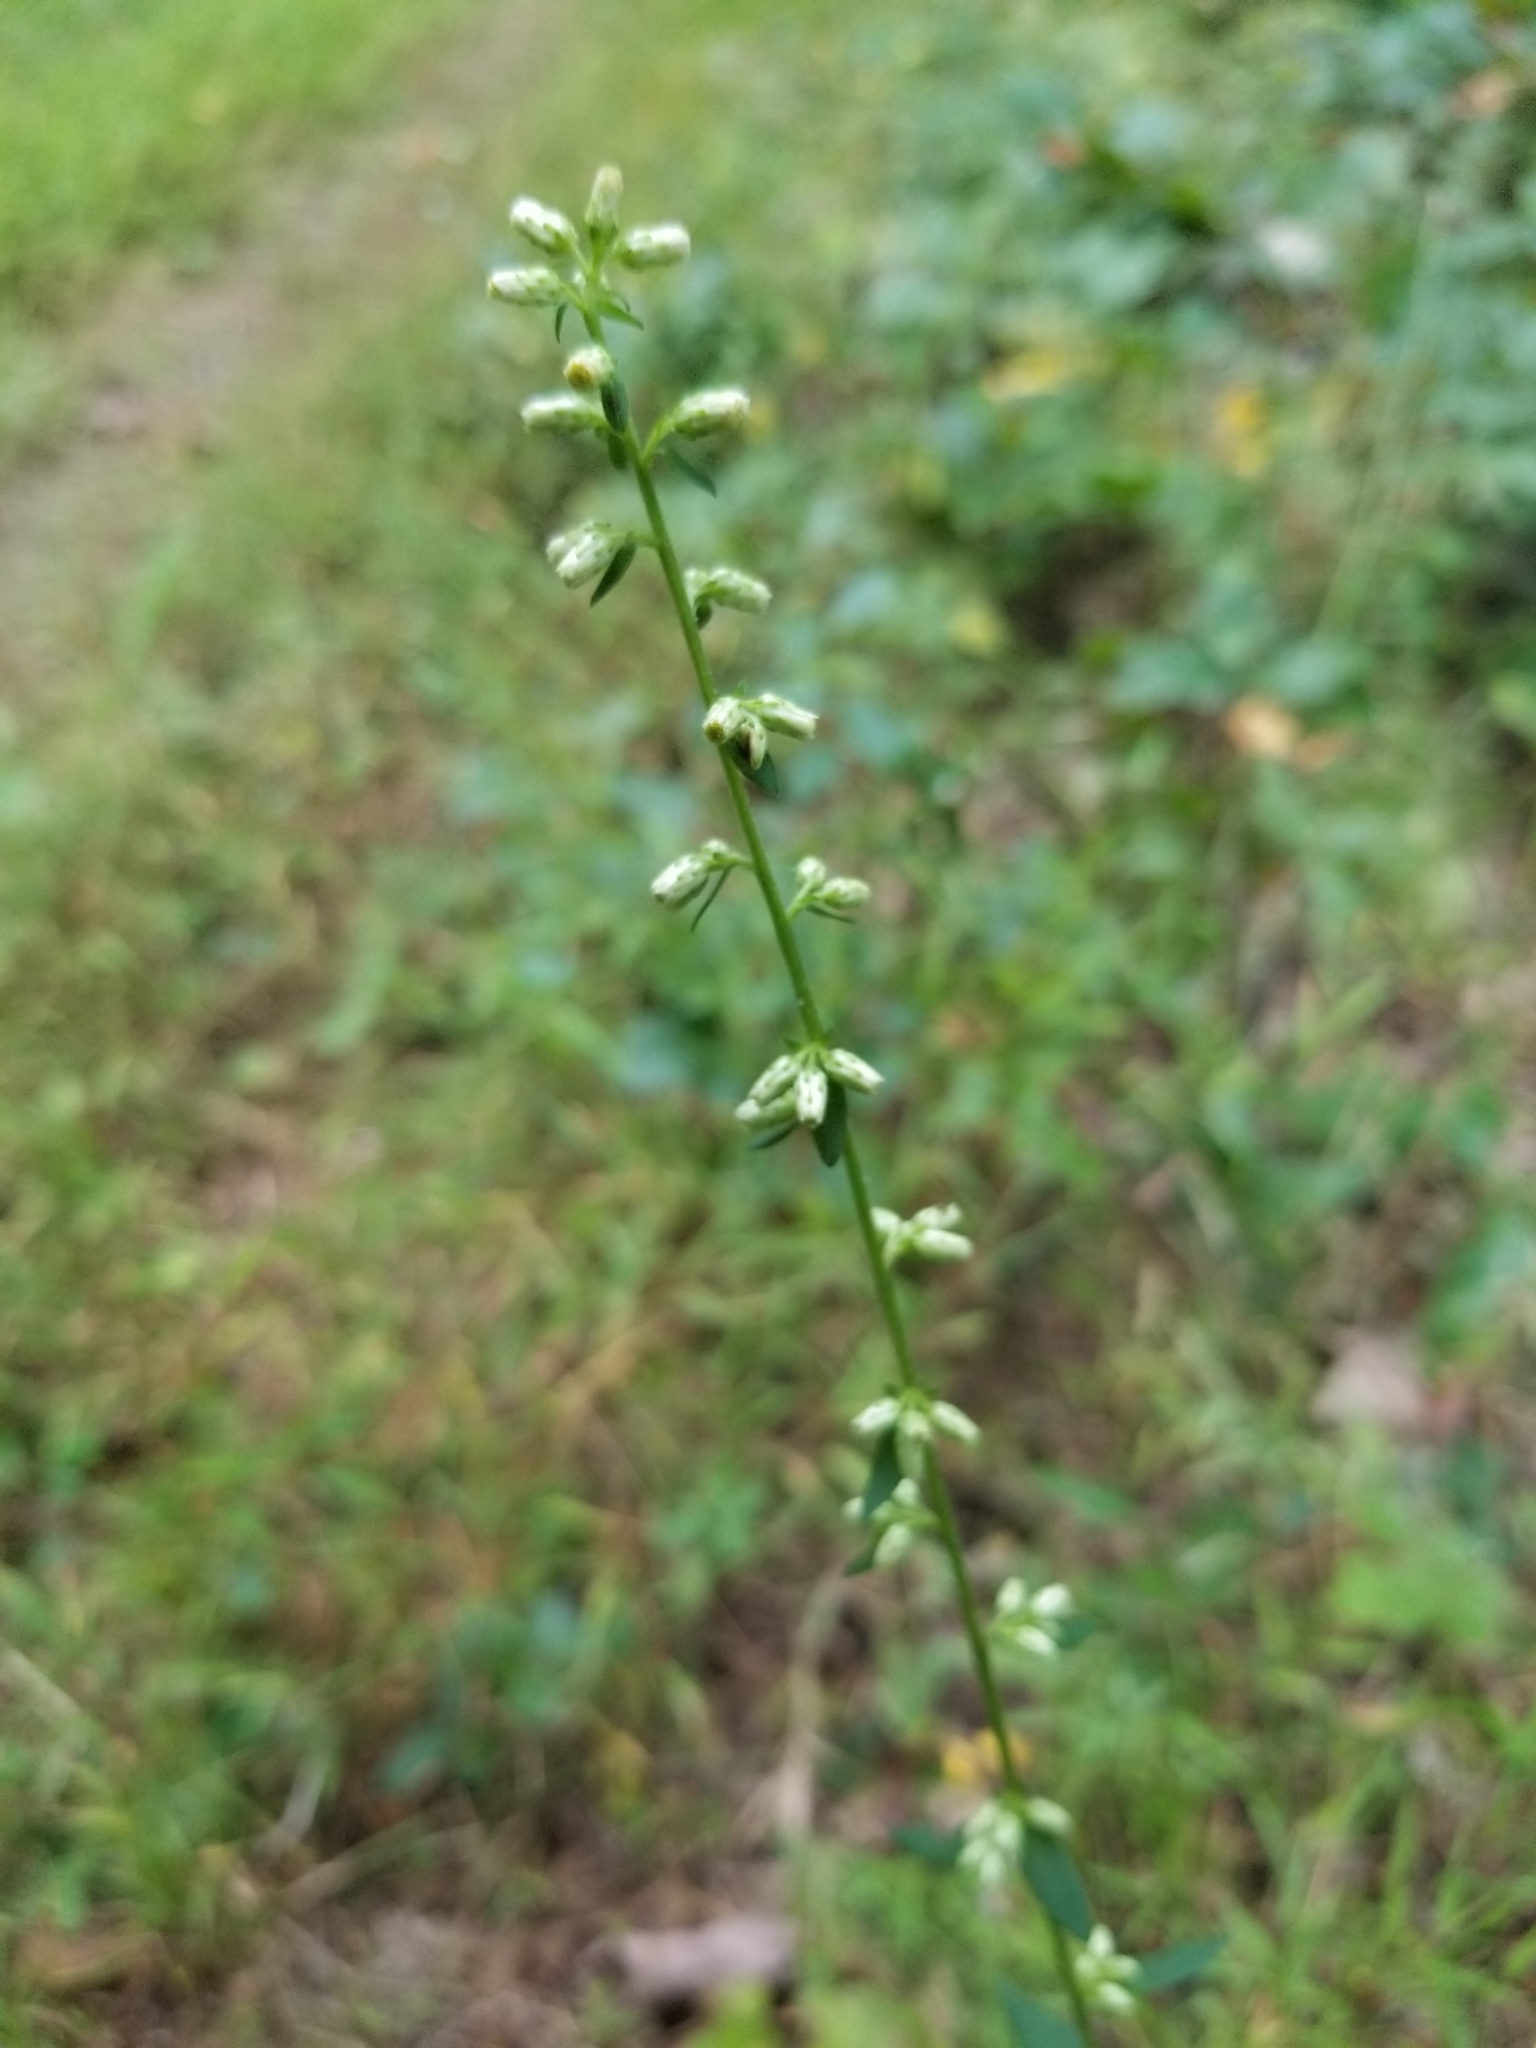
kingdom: Plantae
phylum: Tracheophyta
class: Magnoliopsida
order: Asterales
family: Asteraceae
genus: Solidago
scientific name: Solidago bicolor
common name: Silverrod
